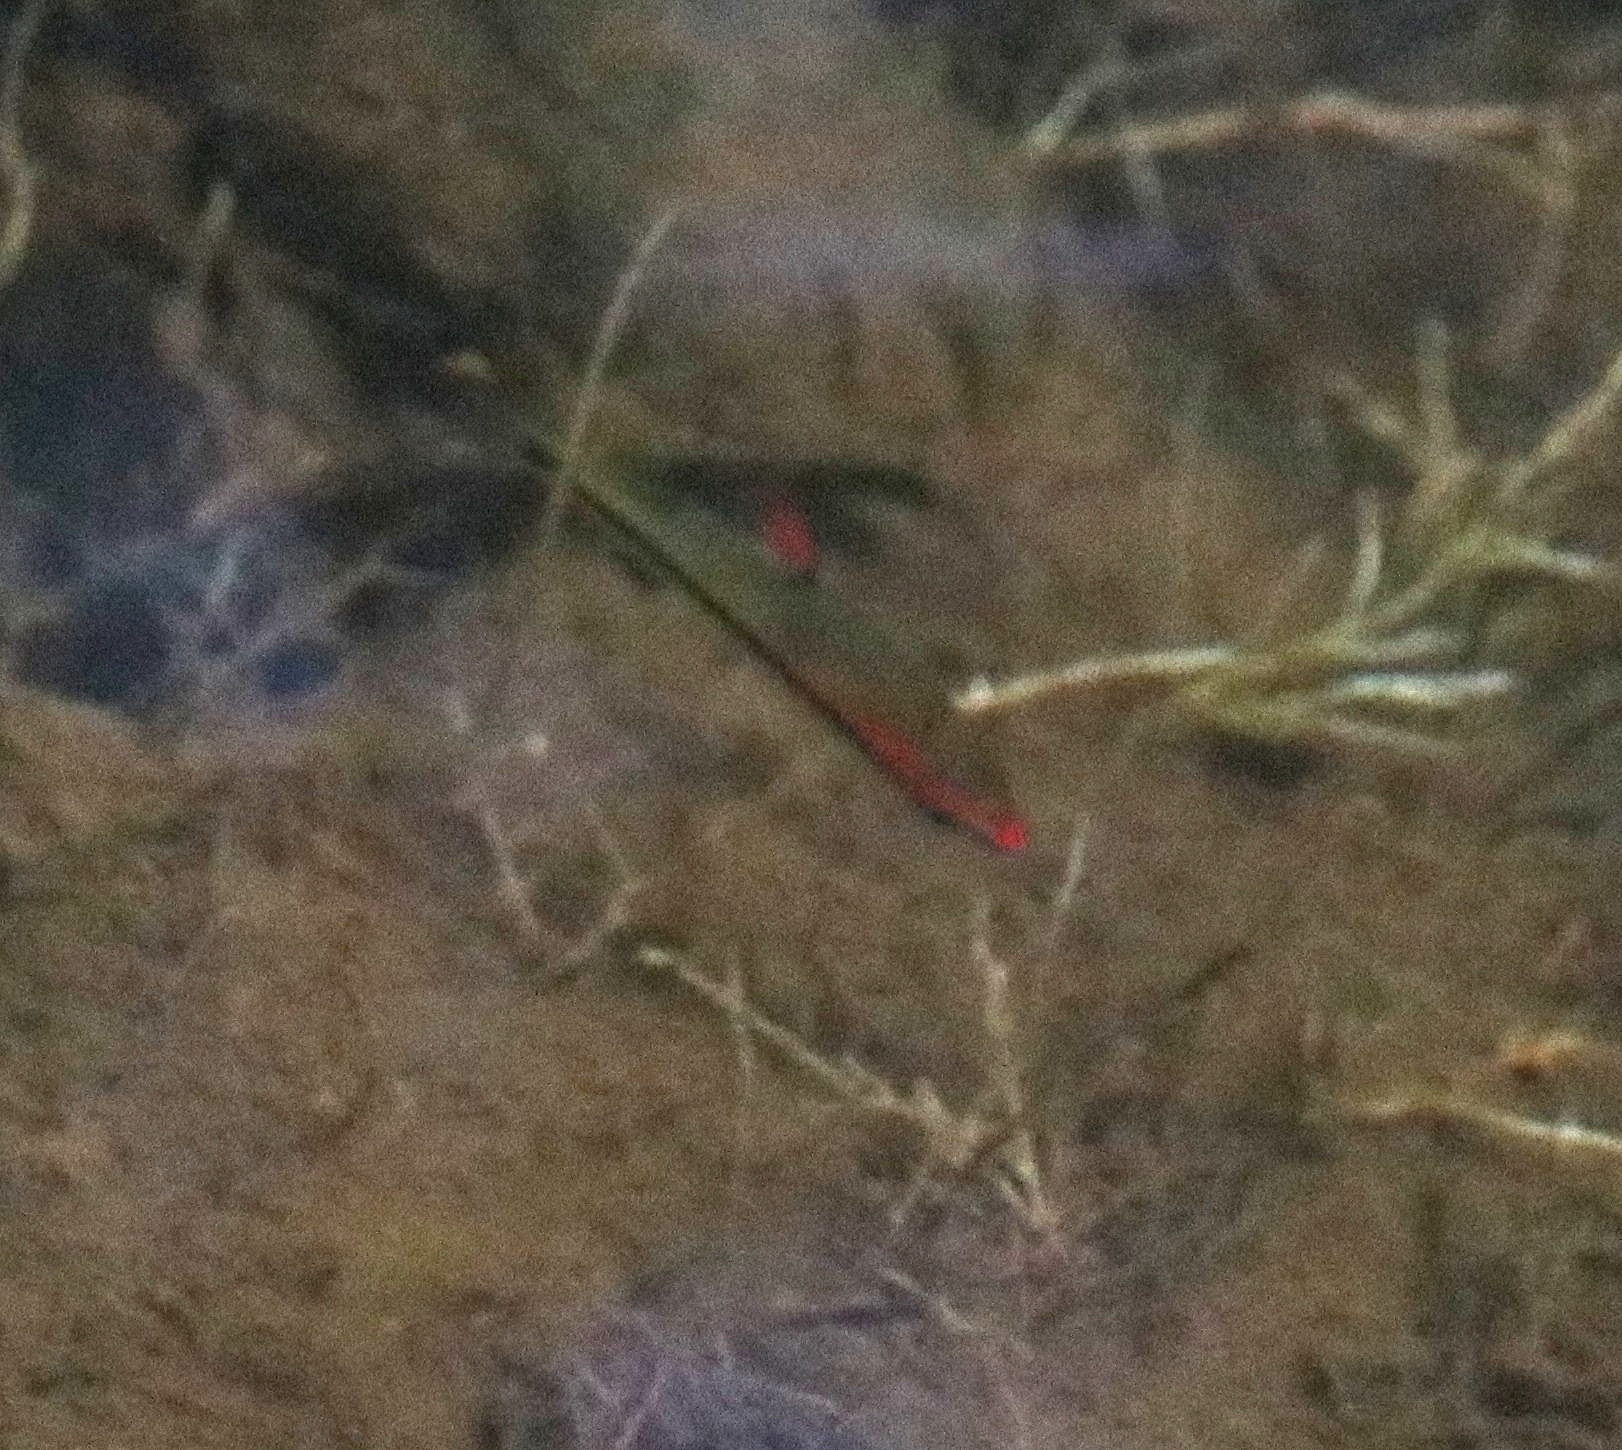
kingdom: Animalia
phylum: Chordata
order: Cypriniformes
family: Cyprinidae
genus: Sahyadria
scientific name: Sahyadria denisonii
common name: Denison barb
